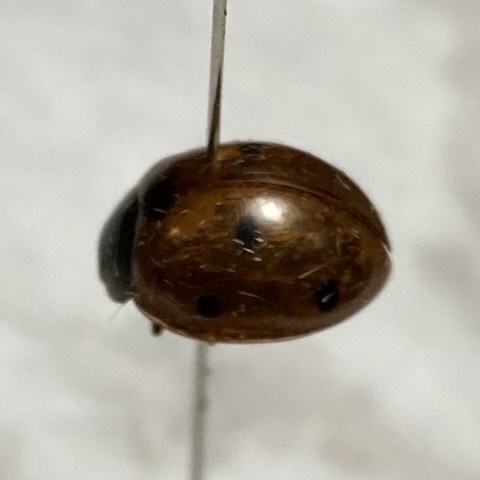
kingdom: Animalia
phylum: Arthropoda
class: Insecta
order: Coleoptera
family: Coccinellidae
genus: Coccinella
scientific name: Coccinella septempunctata
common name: Sevenspotted lady beetle
